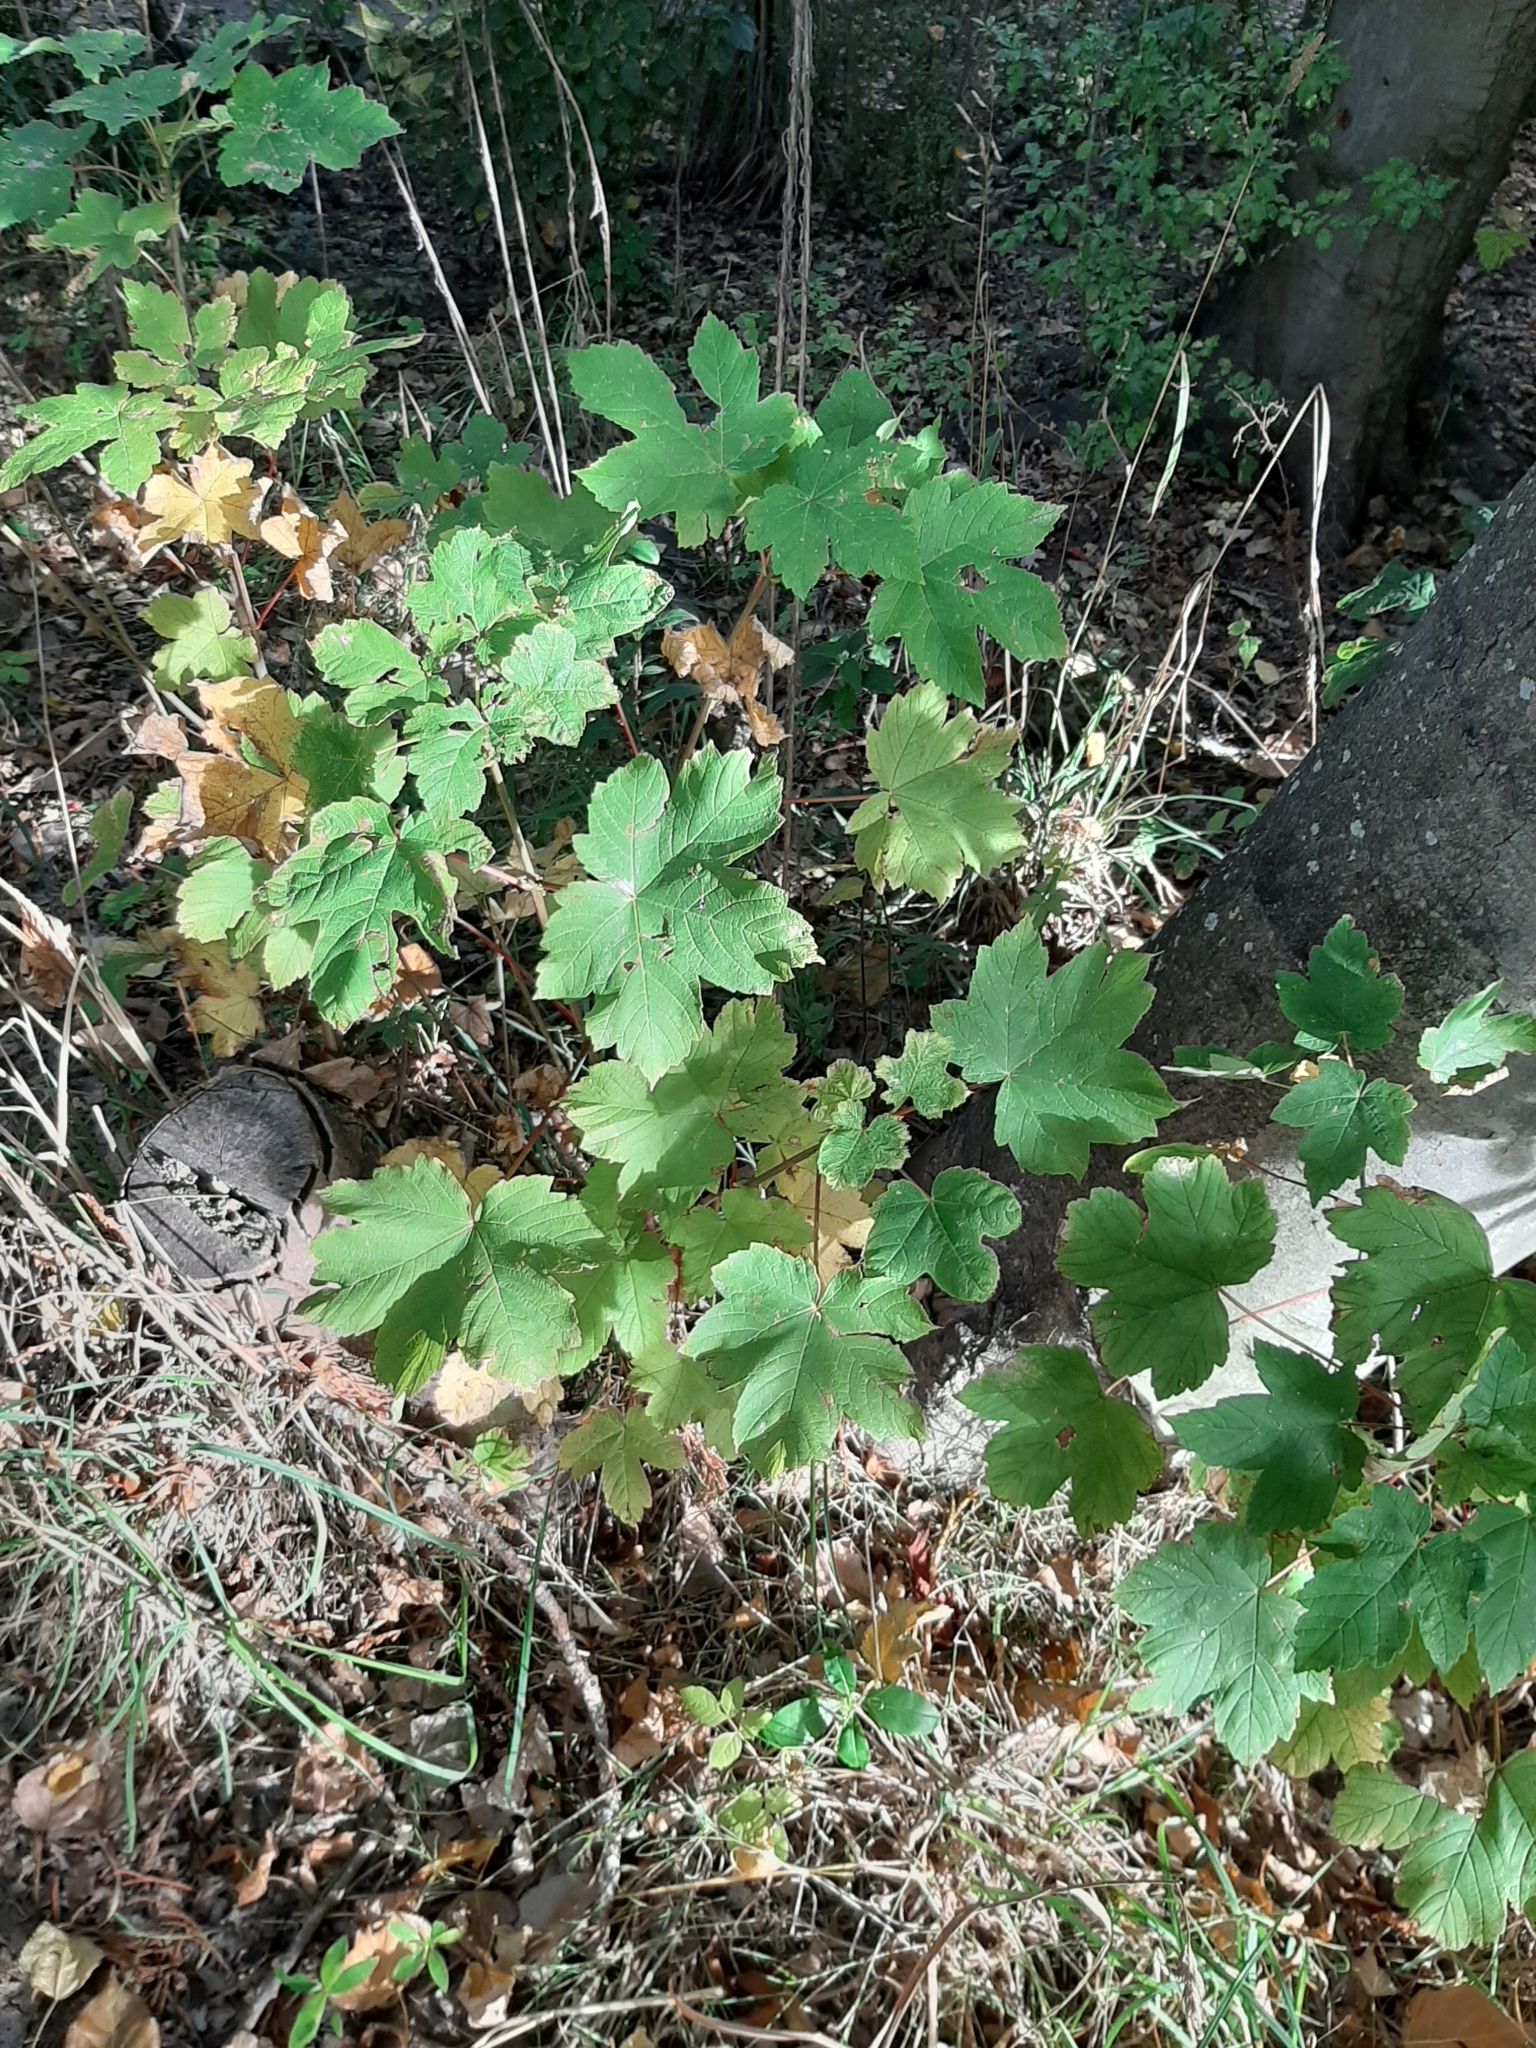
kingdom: Plantae
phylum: Tracheophyta
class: Magnoliopsida
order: Sapindales
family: Sapindaceae
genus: Acer
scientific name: Acer pseudoplatanus
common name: Sycamore
